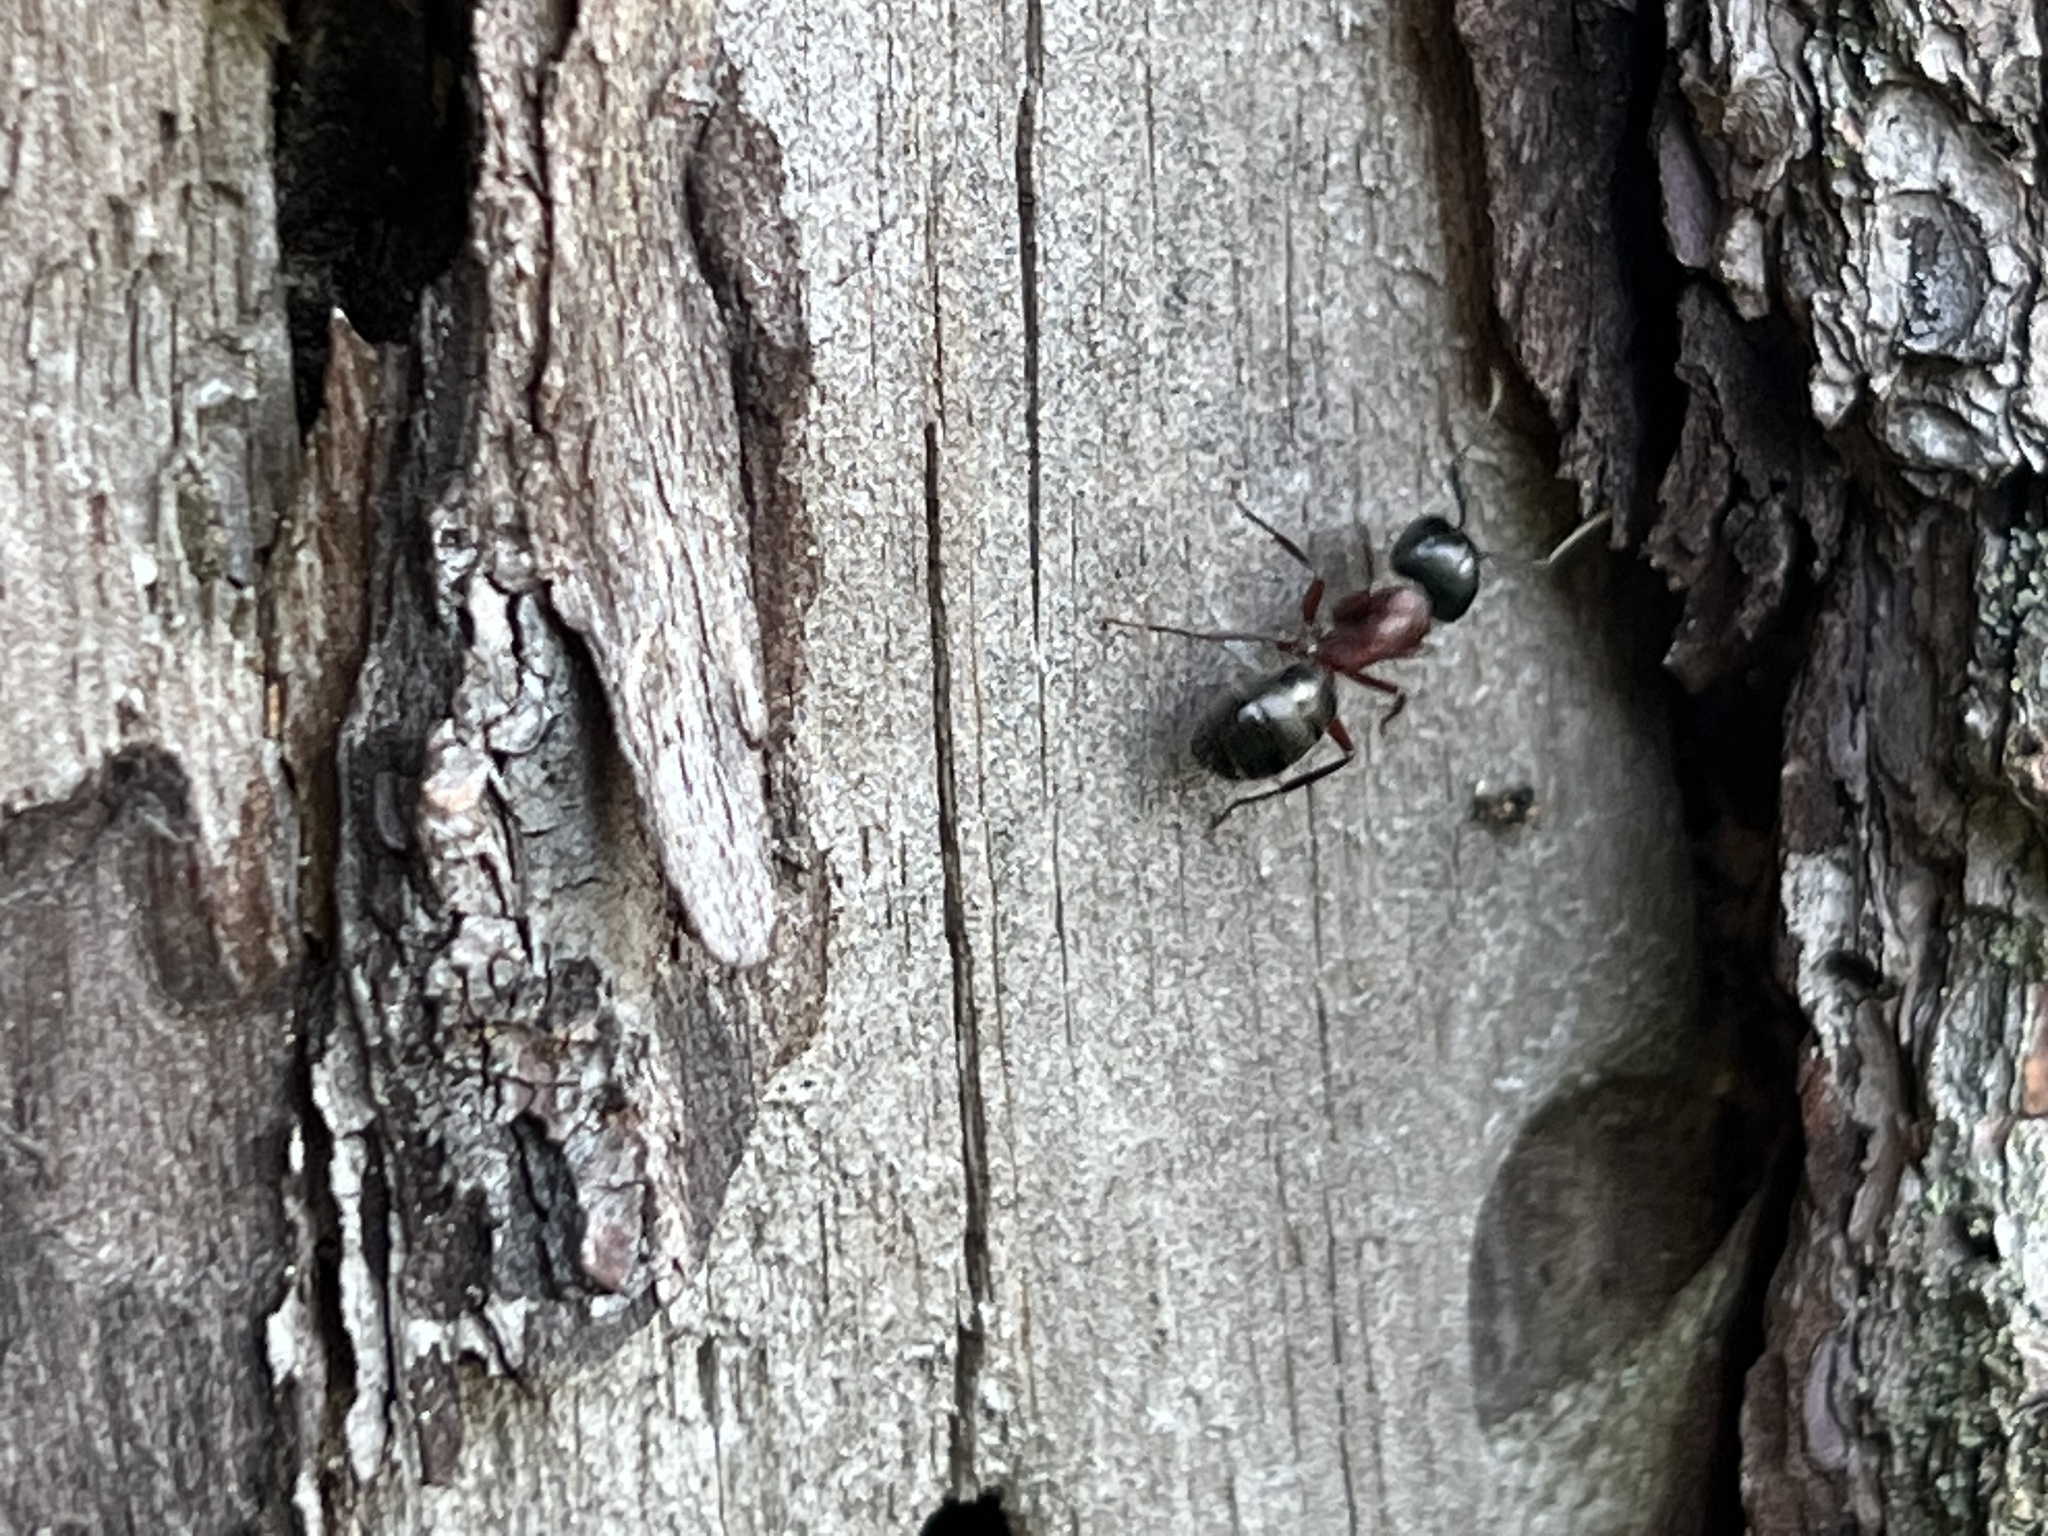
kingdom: Animalia
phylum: Arthropoda
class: Insecta
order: Hymenoptera
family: Formicidae
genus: Camponotus
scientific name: Camponotus novaeboracensis
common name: New york carpenter ant
